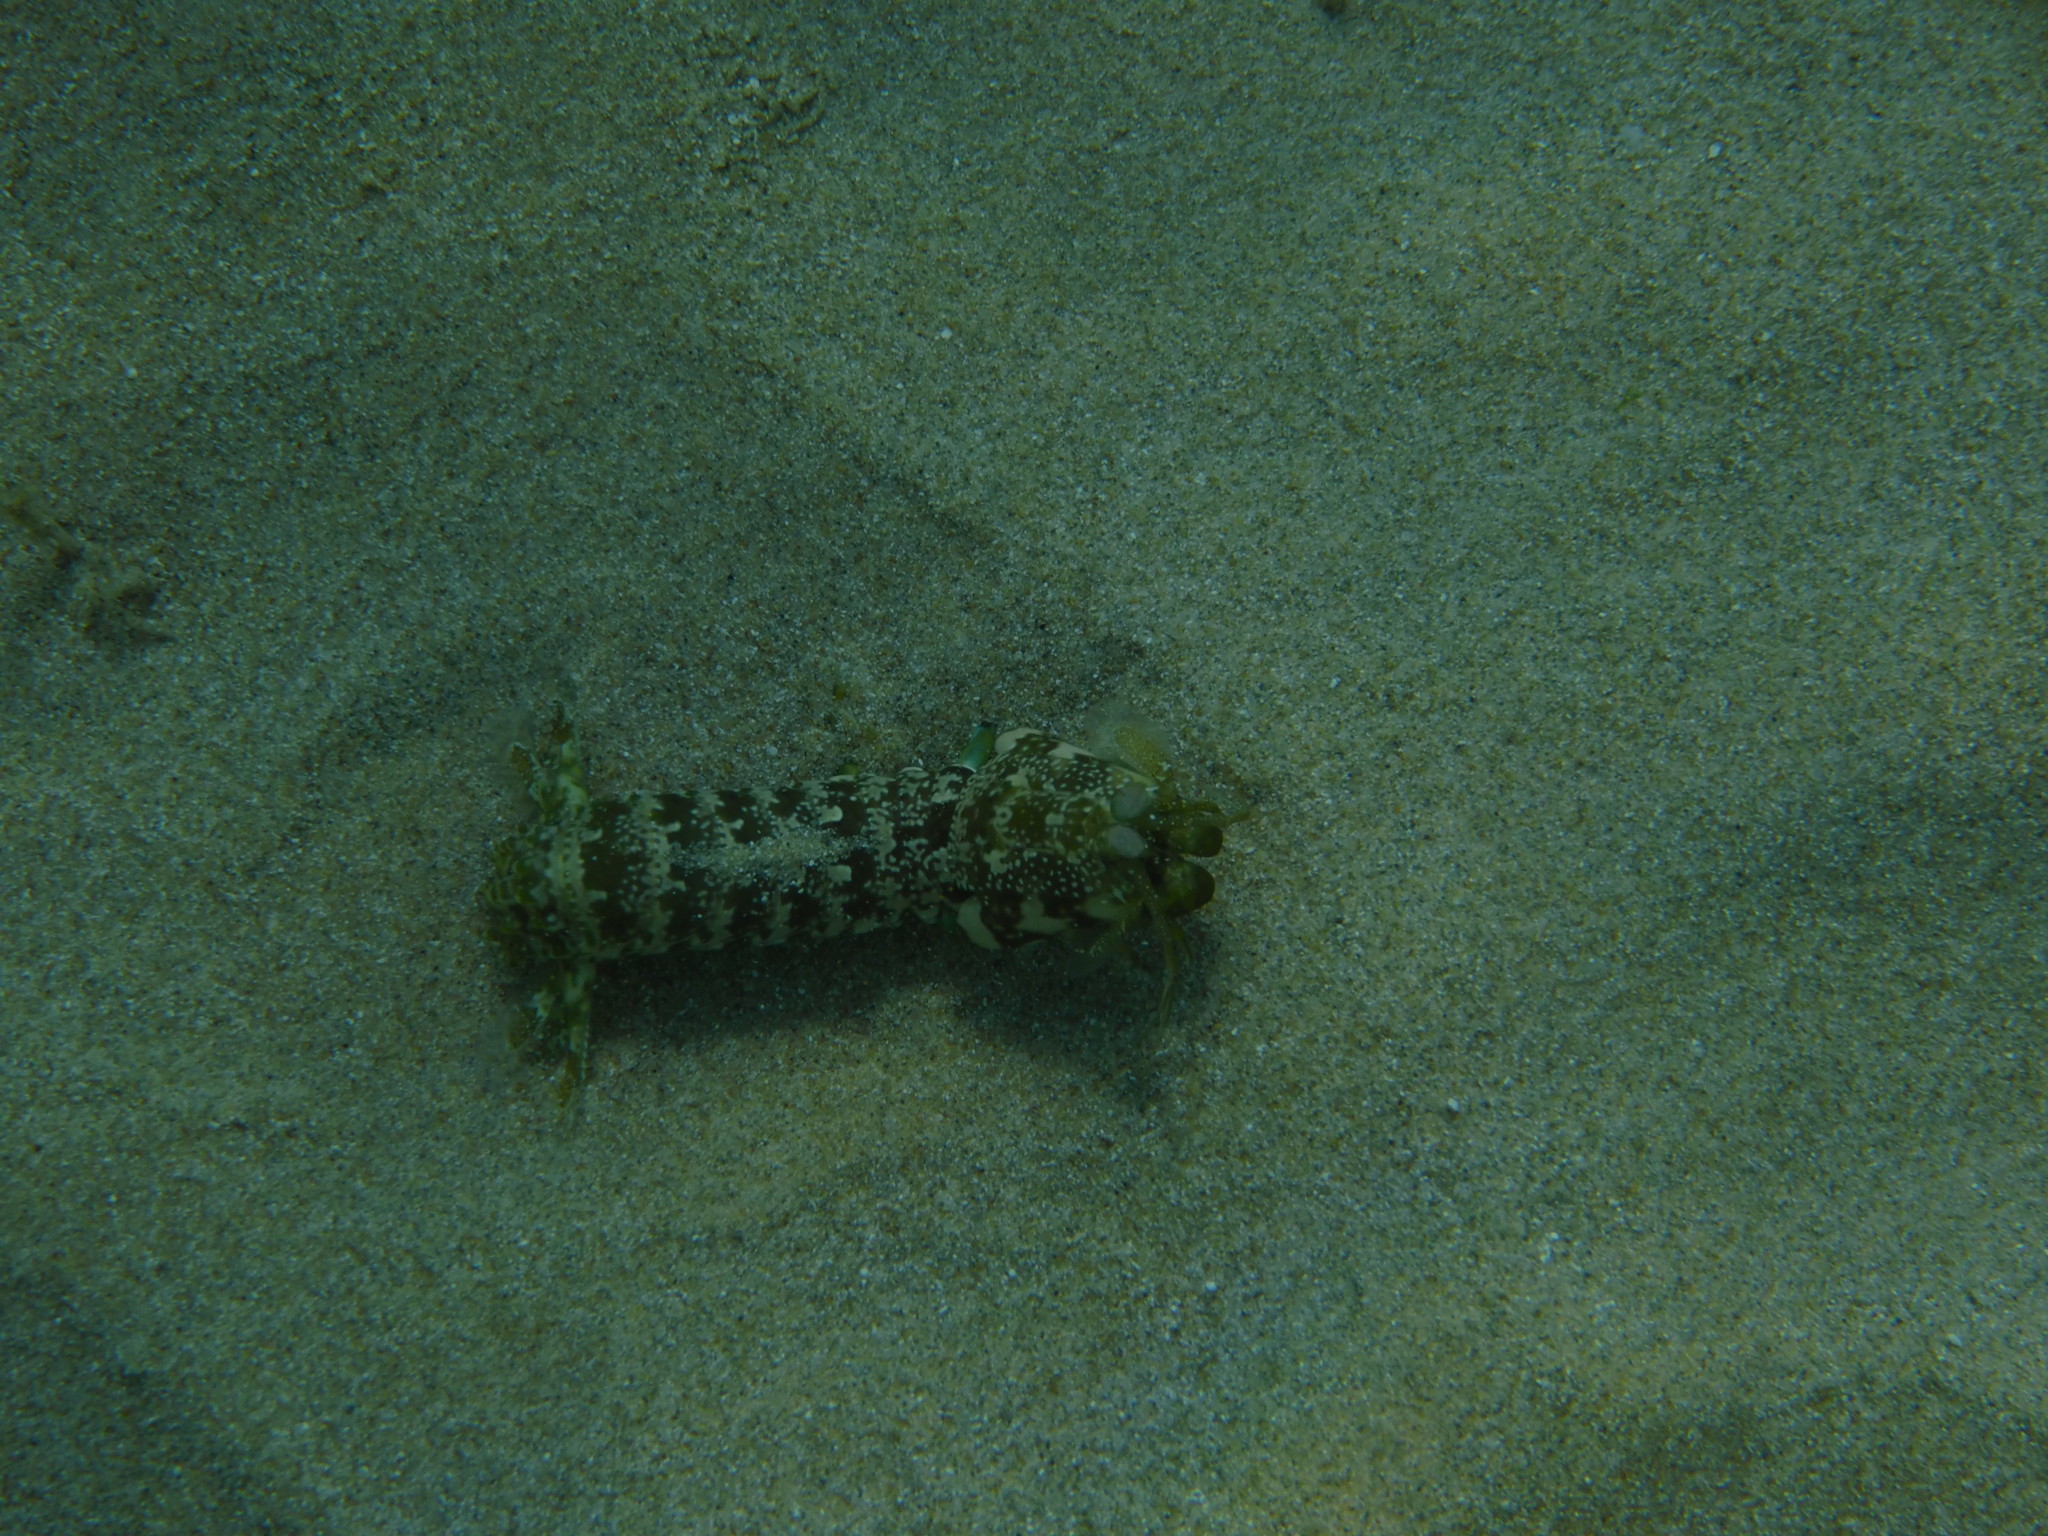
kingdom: Animalia
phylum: Arthropoda
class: Malacostraca
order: Stomatopoda
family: Gonodactylidae
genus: Neogonodactylus
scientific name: Neogonodactylus oerstedii
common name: Swollen-claw squilla
